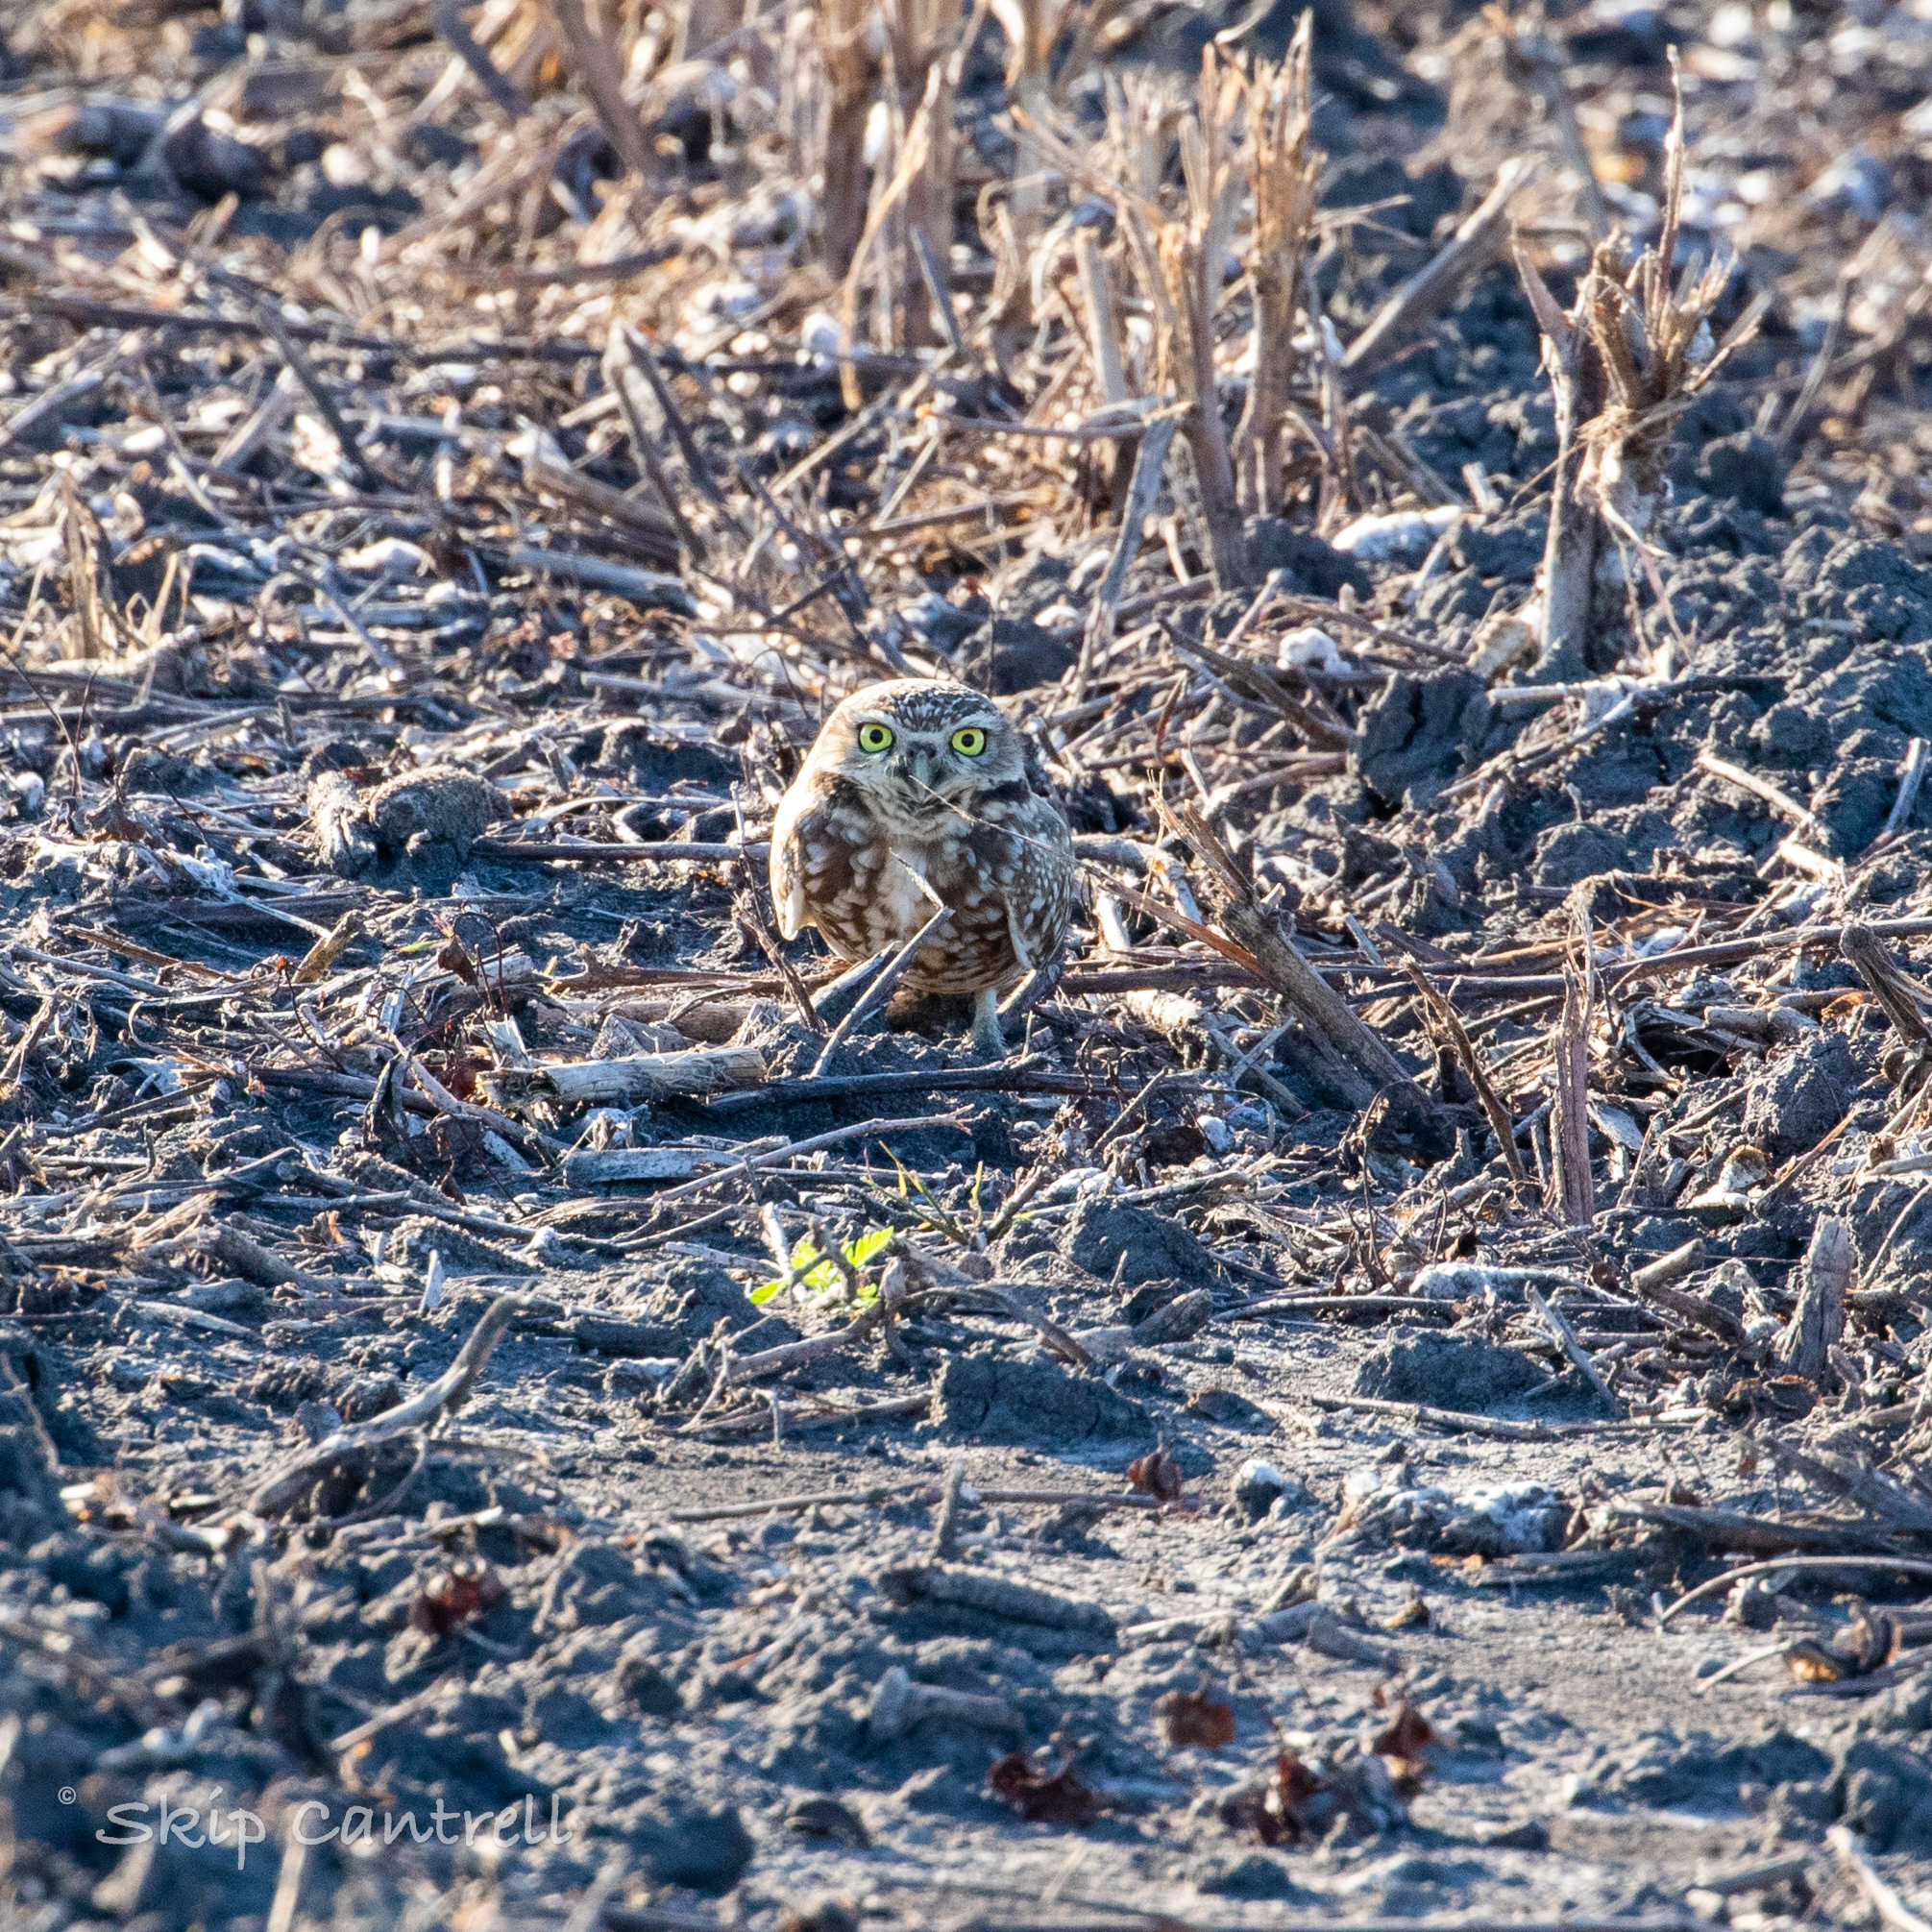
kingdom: Animalia
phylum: Chordata
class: Aves
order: Strigiformes
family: Strigidae
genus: Athene
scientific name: Athene cunicularia
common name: Burrowing owl
